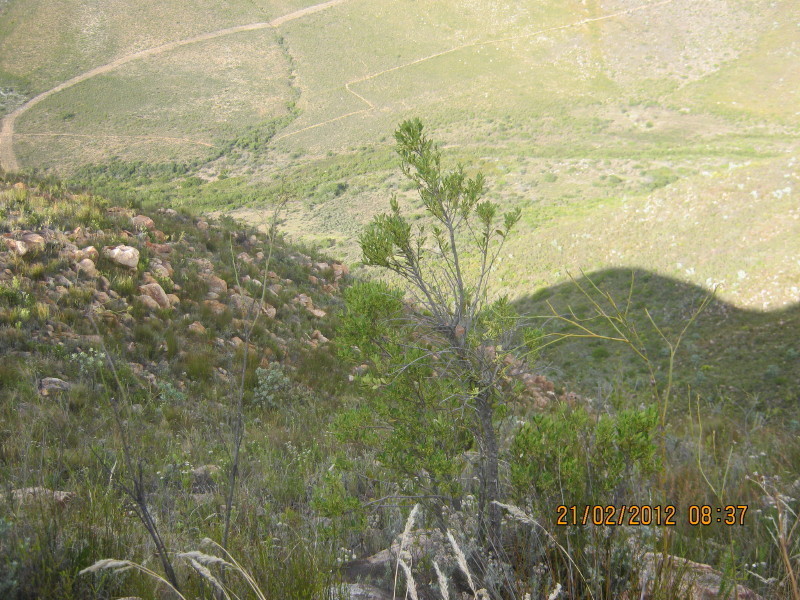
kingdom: Plantae
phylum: Tracheophyta
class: Magnoliopsida
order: Sapindales
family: Sapindaceae
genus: Dodonaea
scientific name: Dodonaea viscosa
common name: Hopbush
